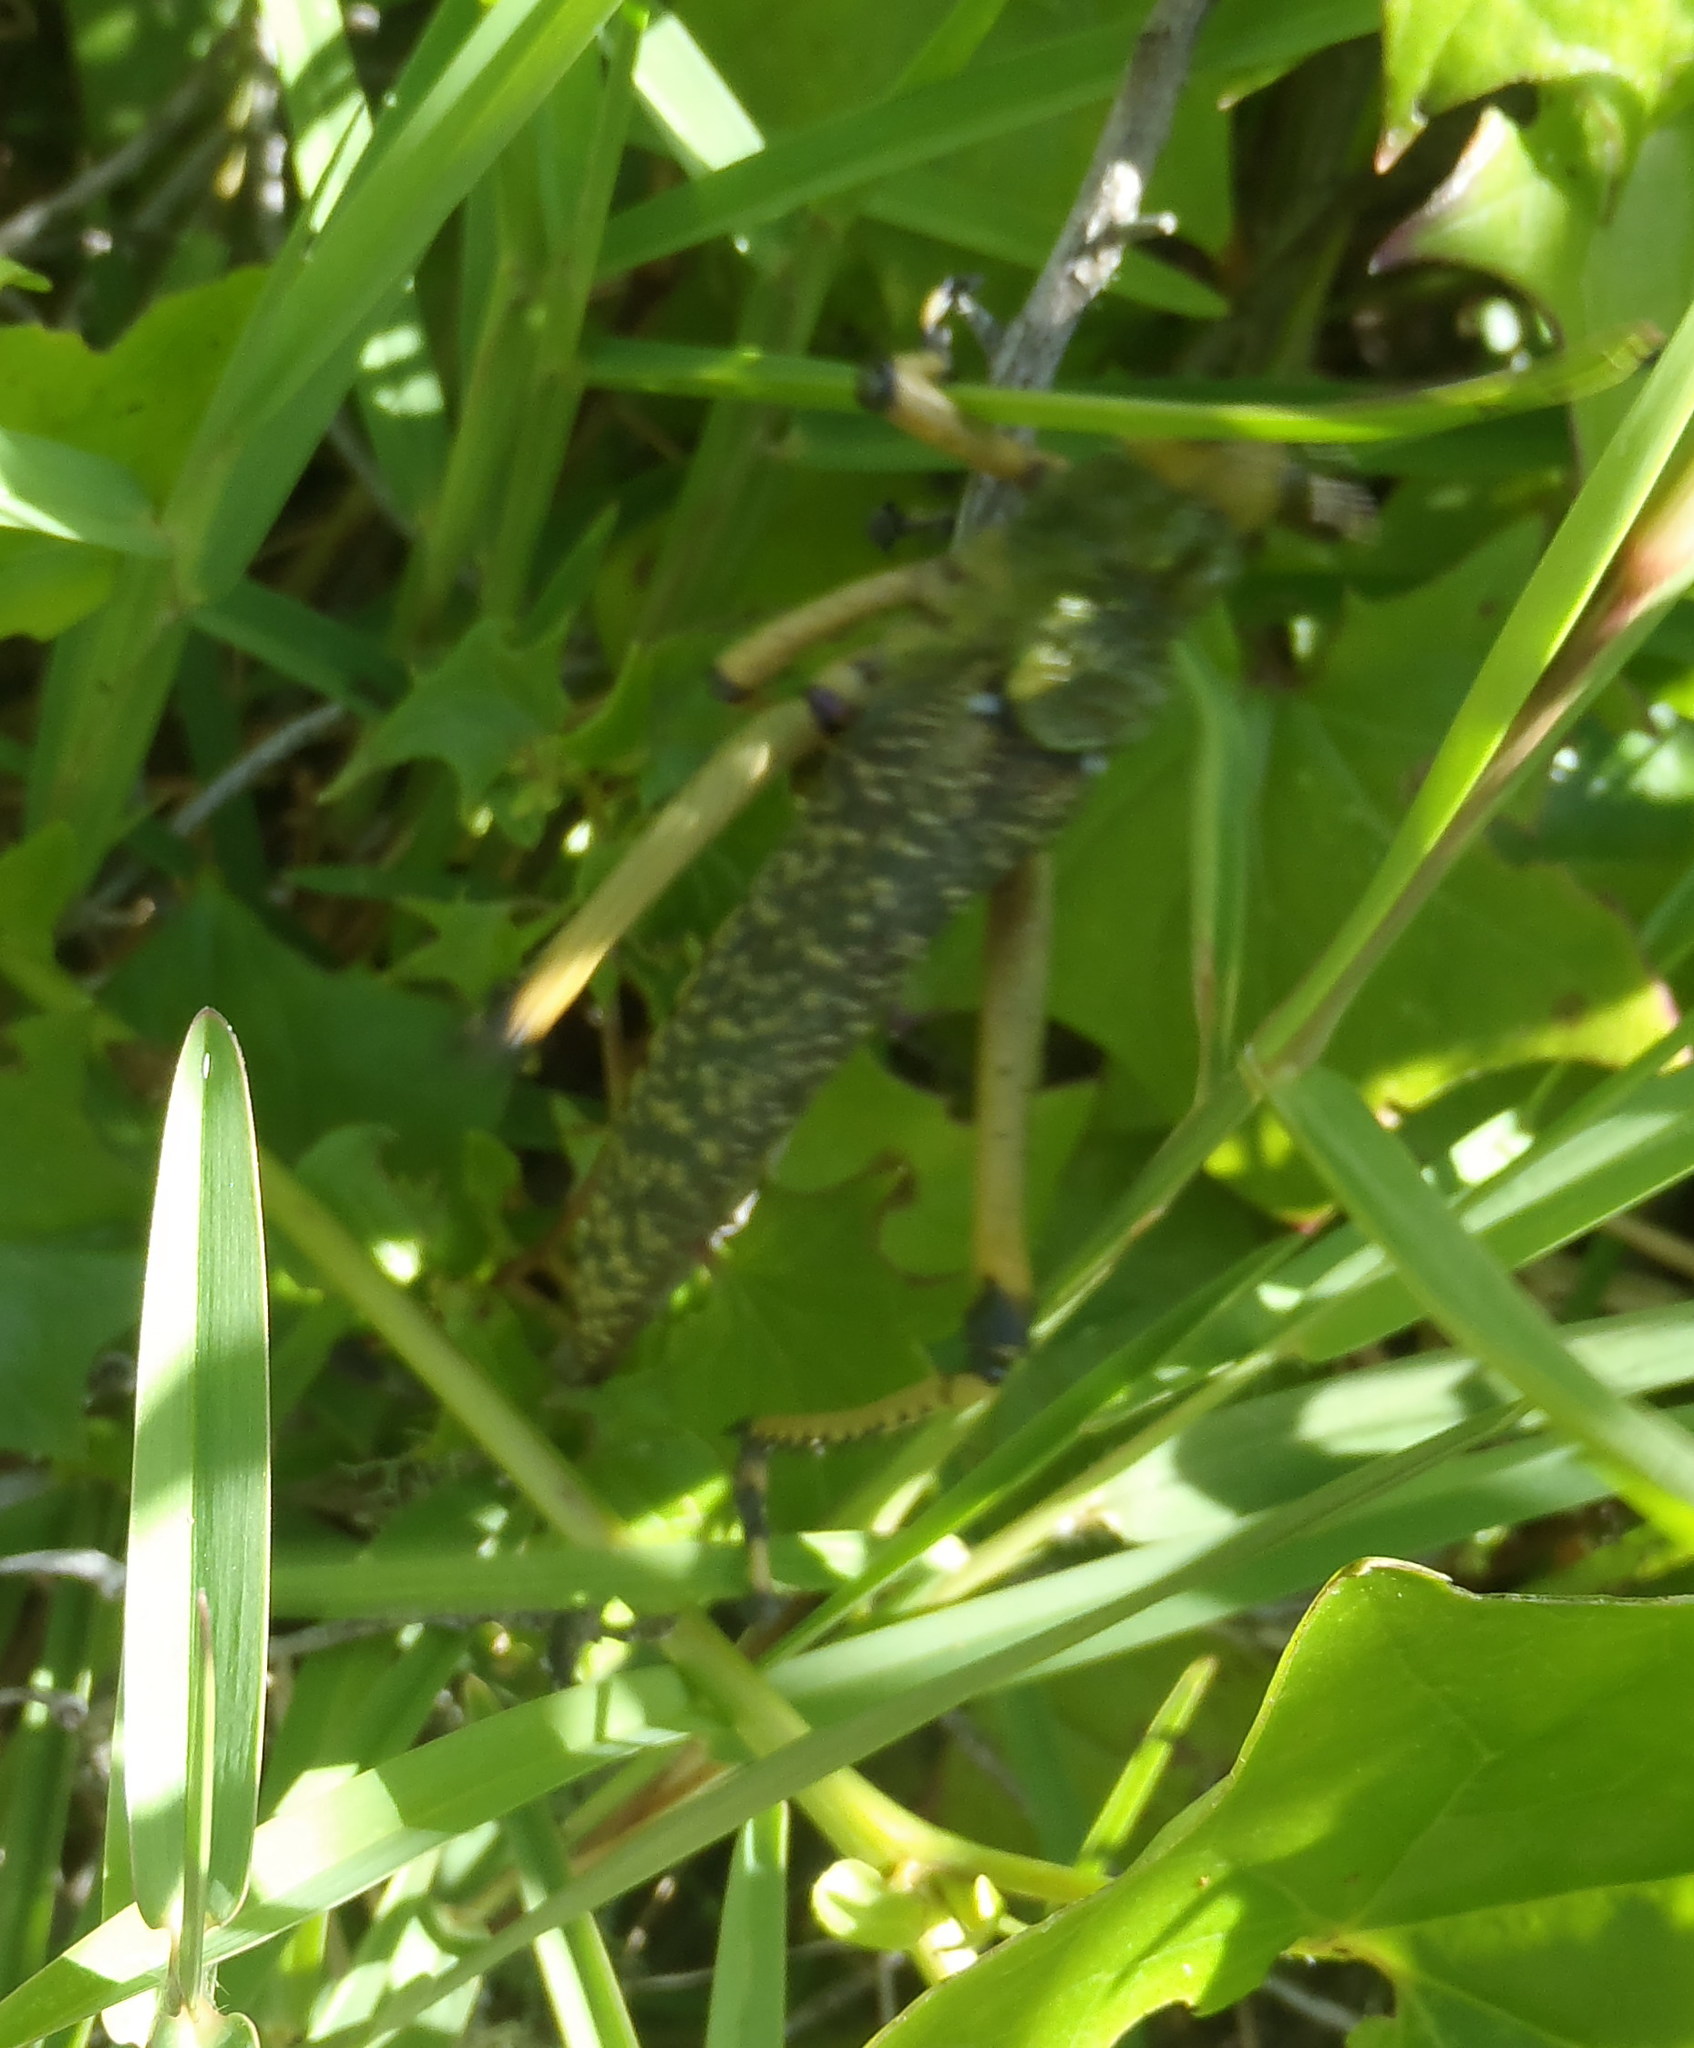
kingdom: Animalia
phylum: Arthropoda
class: Insecta
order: Orthoptera
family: Pyrgomorphidae
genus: Phymateus
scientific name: Phymateus leprosus
